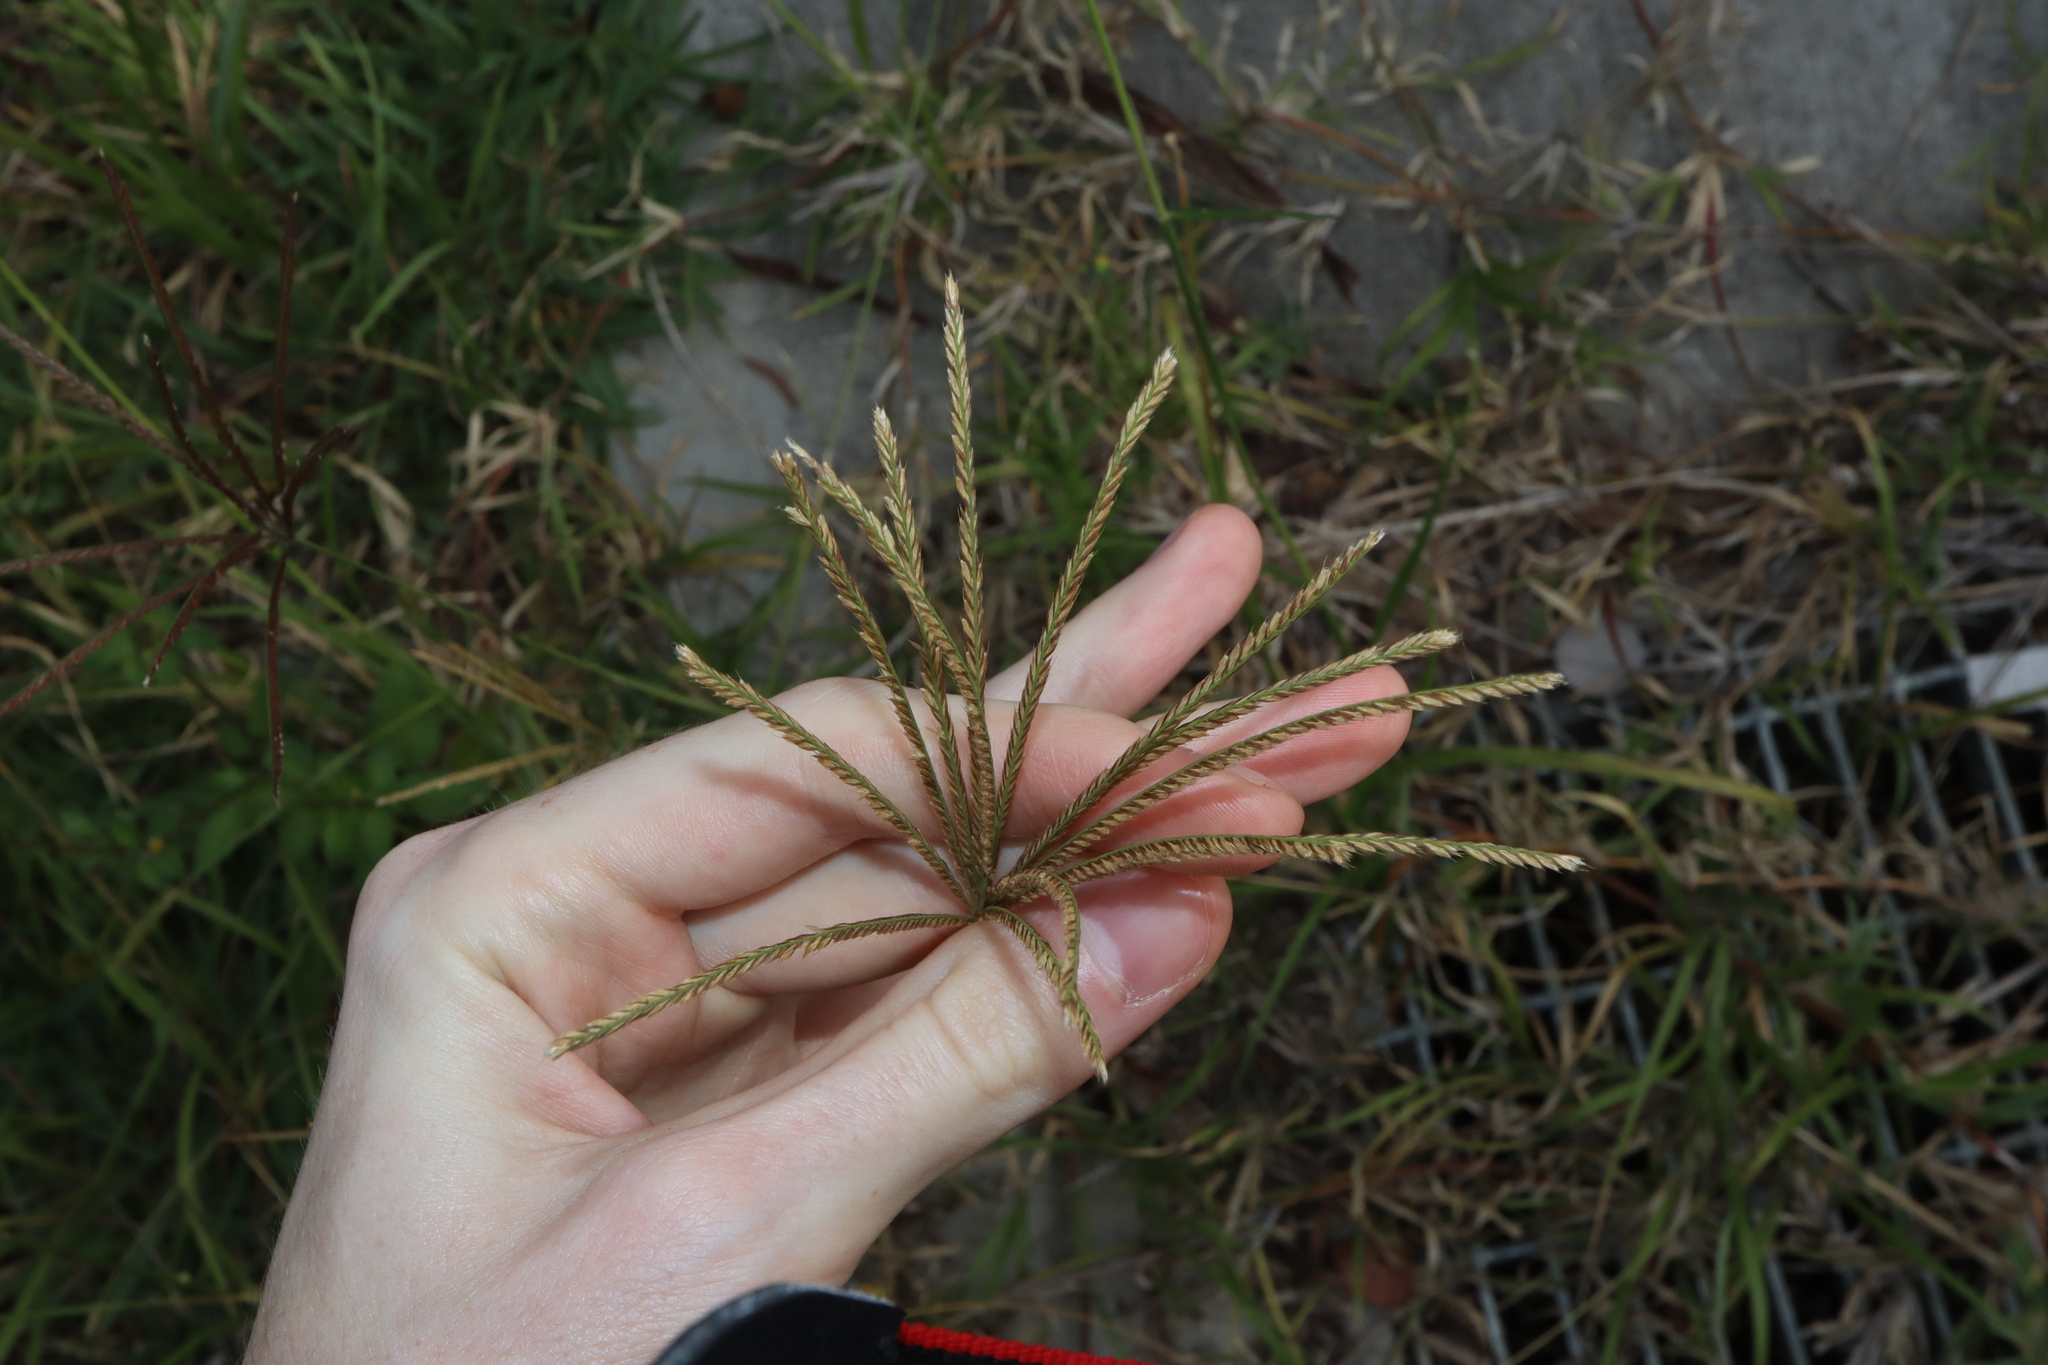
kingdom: Plantae
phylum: Tracheophyta
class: Liliopsida
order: Poales
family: Poaceae
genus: Chloris
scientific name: Chloris gayana
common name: Rhodes grass
